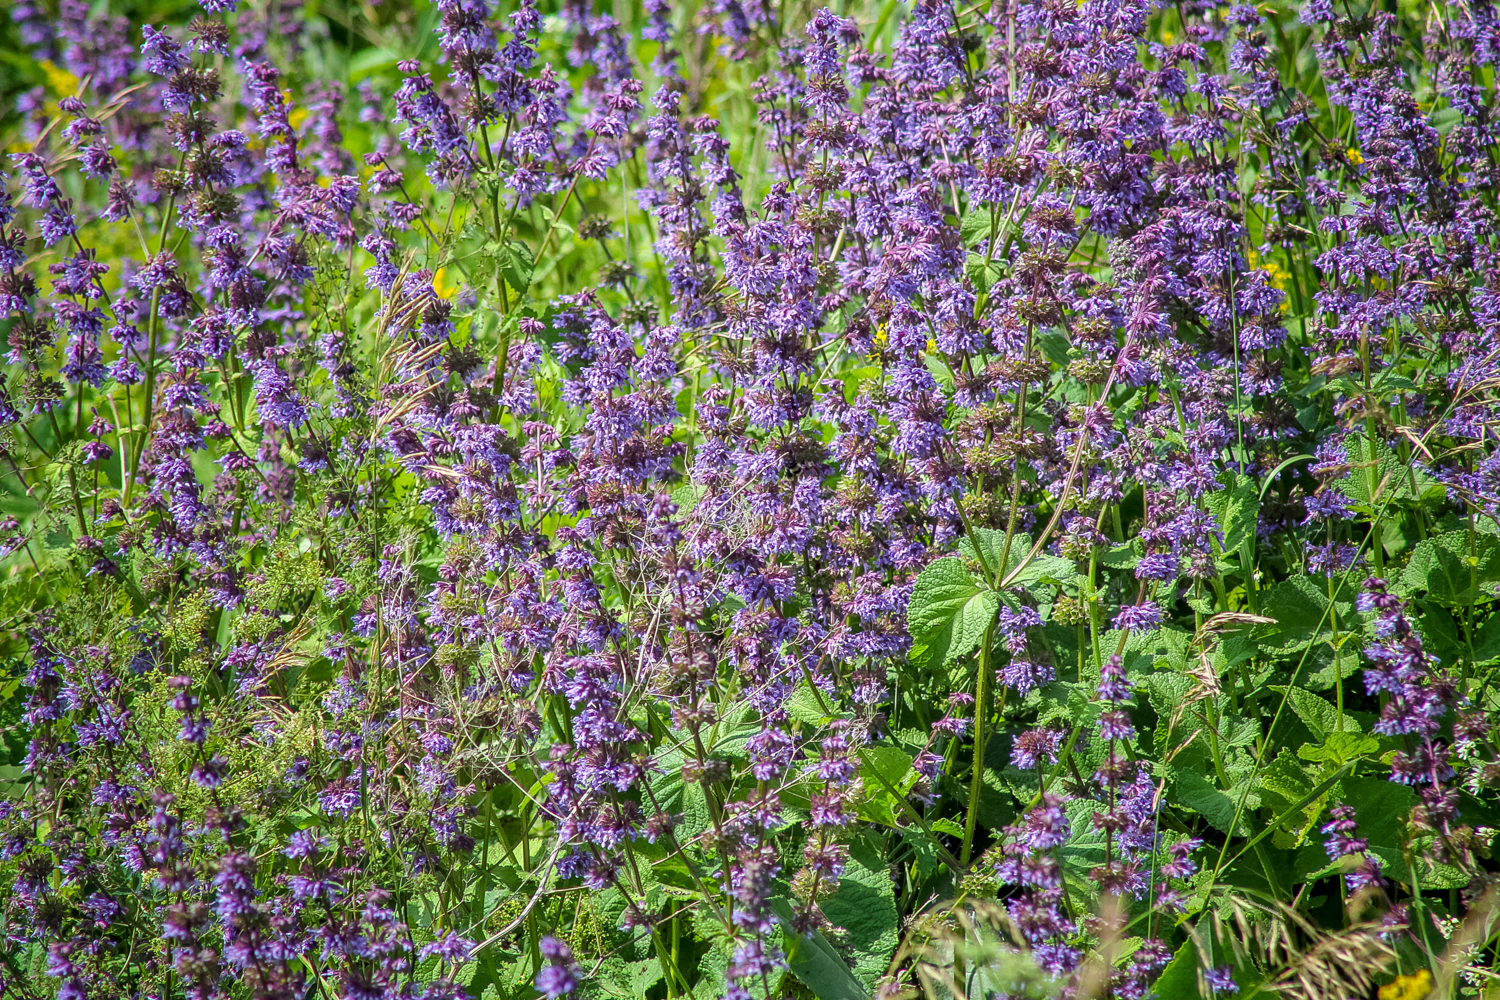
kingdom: Plantae
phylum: Tracheophyta
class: Magnoliopsida
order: Lamiales
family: Lamiaceae
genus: Salvia
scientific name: Salvia verticillata
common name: Whorled clary
